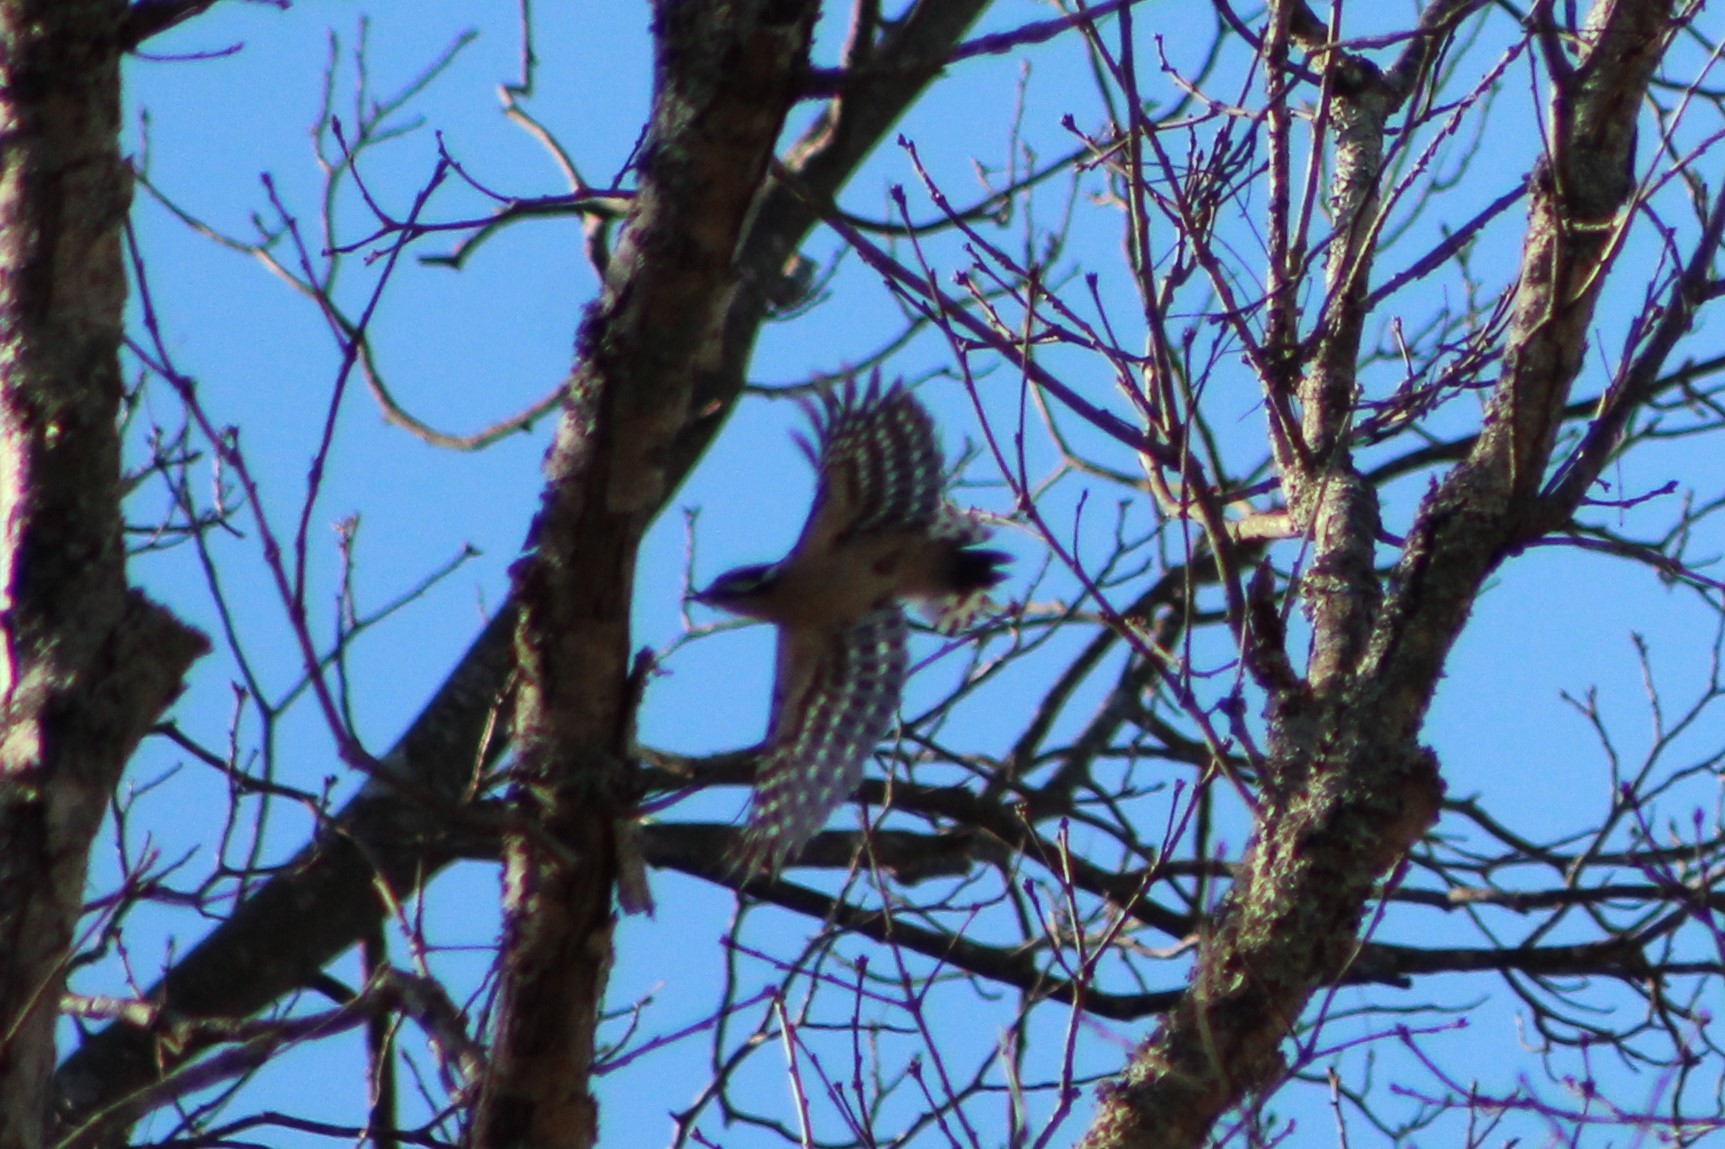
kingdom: Animalia
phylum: Chordata
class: Aves
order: Piciformes
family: Picidae
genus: Dryobates
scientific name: Dryobates pubescens
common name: Downy woodpecker
